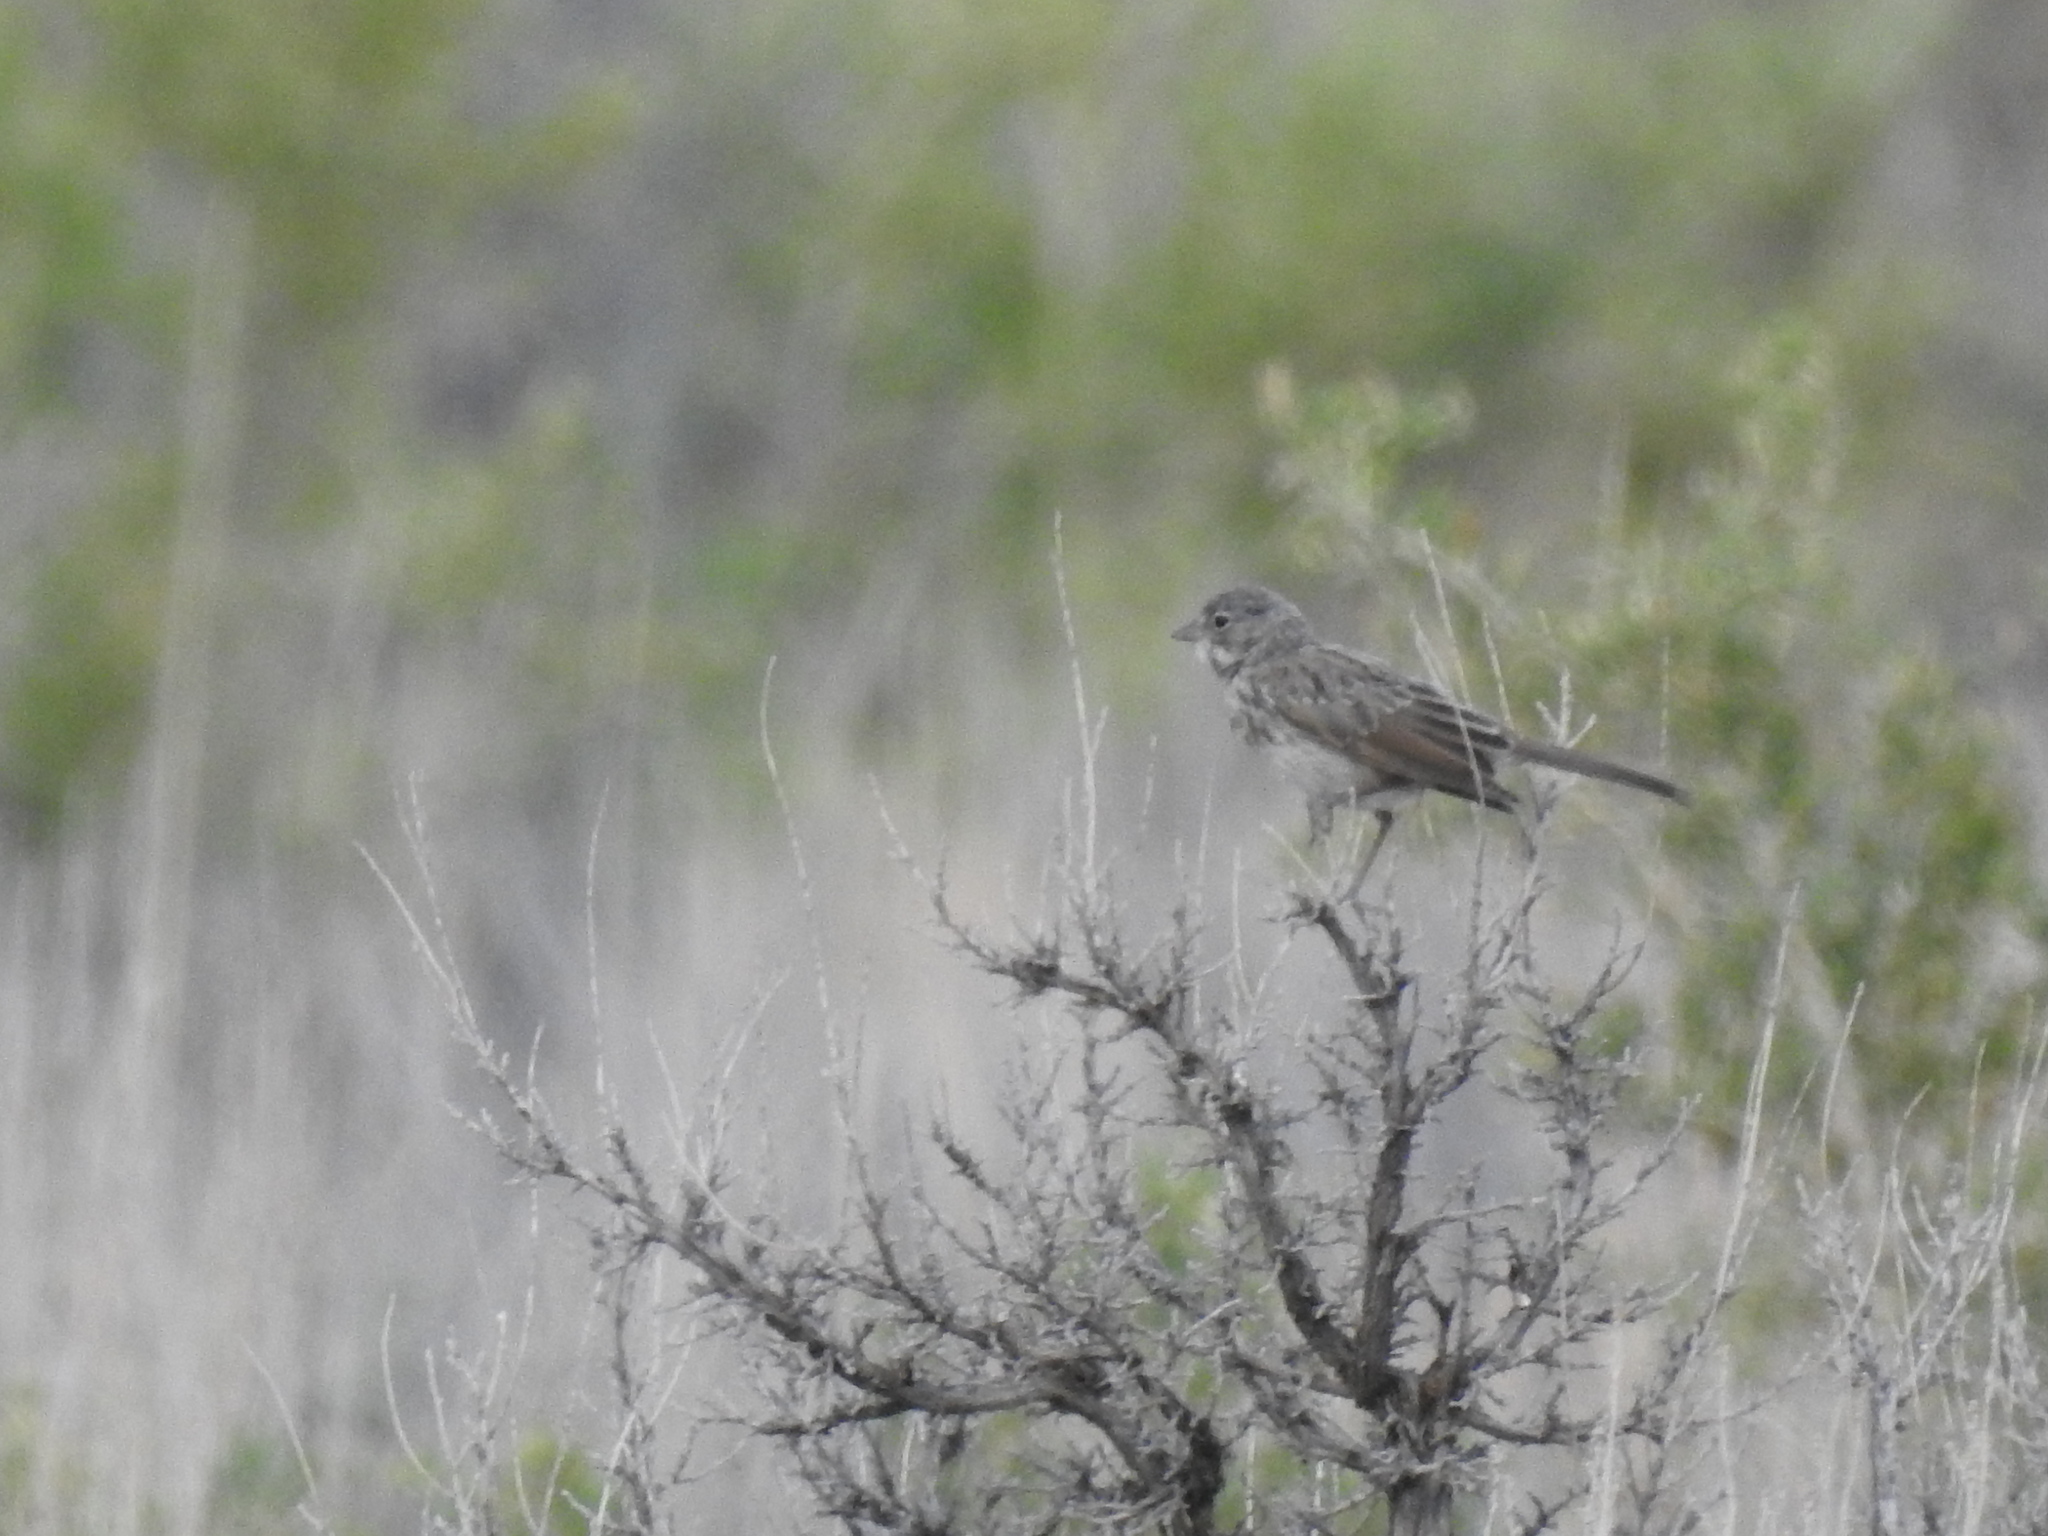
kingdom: Animalia
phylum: Chordata
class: Aves
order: Passeriformes
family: Passerellidae
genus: Artemisiospiza
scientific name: Artemisiospiza nevadensis
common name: Sagebrush sparrow
